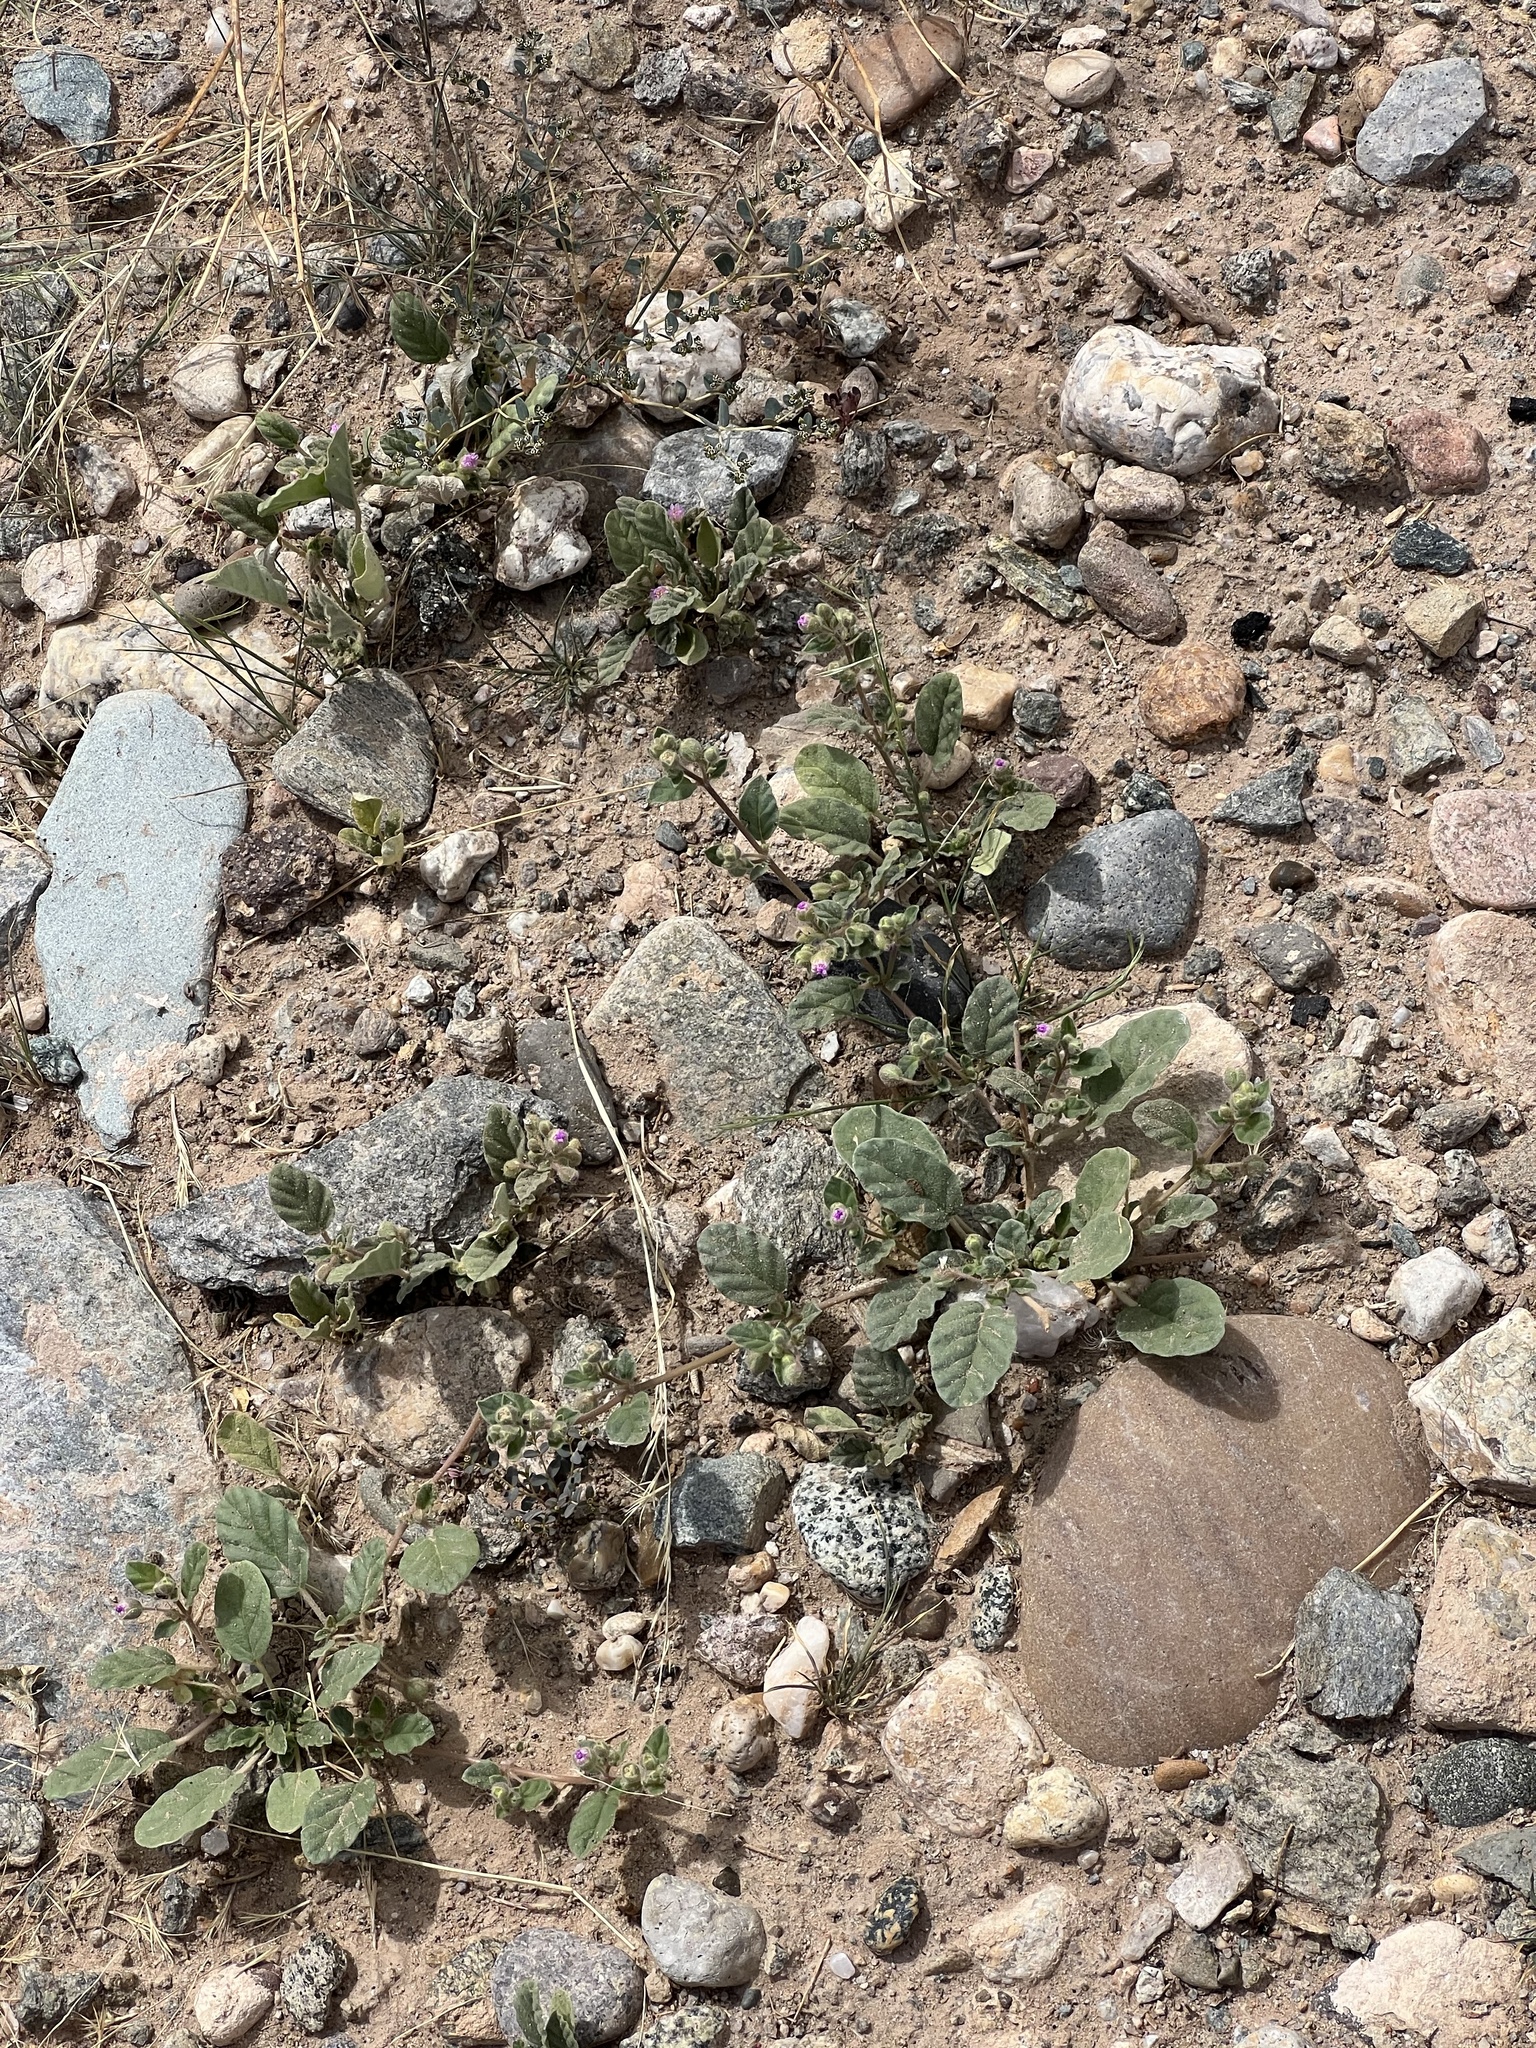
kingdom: Plantae
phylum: Tracheophyta
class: Magnoliopsida
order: Caryophyllales
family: Nyctaginaceae
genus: Allionia
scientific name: Allionia incarnata
